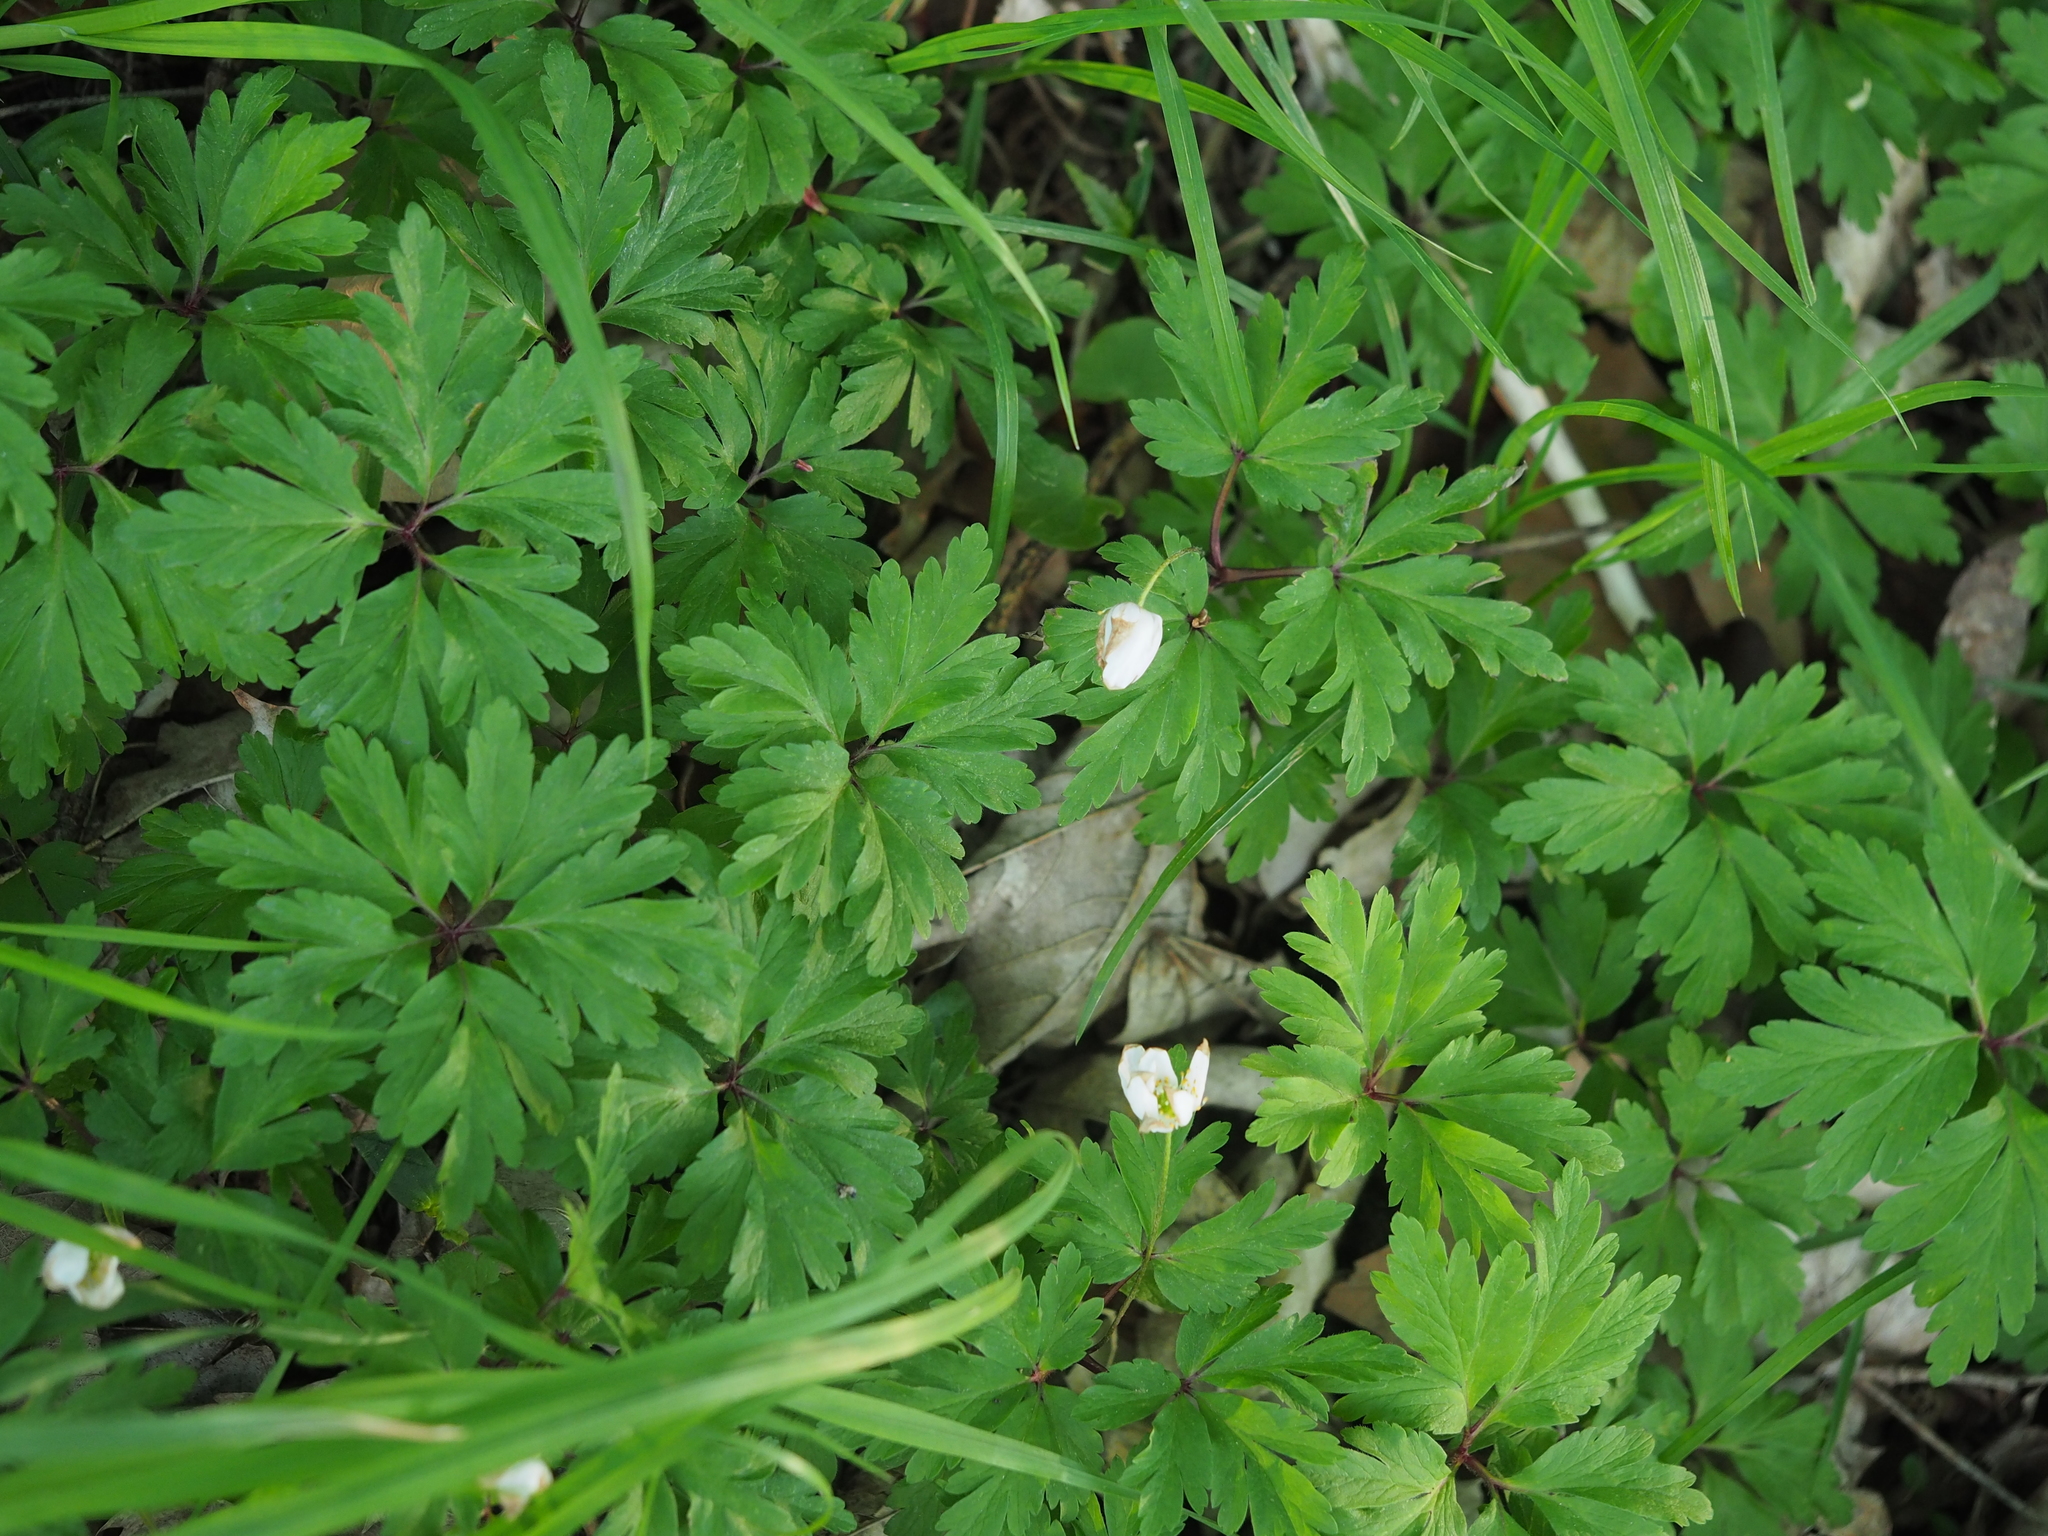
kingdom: Plantae
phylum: Tracheophyta
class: Magnoliopsida
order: Ranunculales
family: Ranunculaceae
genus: Anemone
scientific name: Anemone nemorosa
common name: Wood anemone
